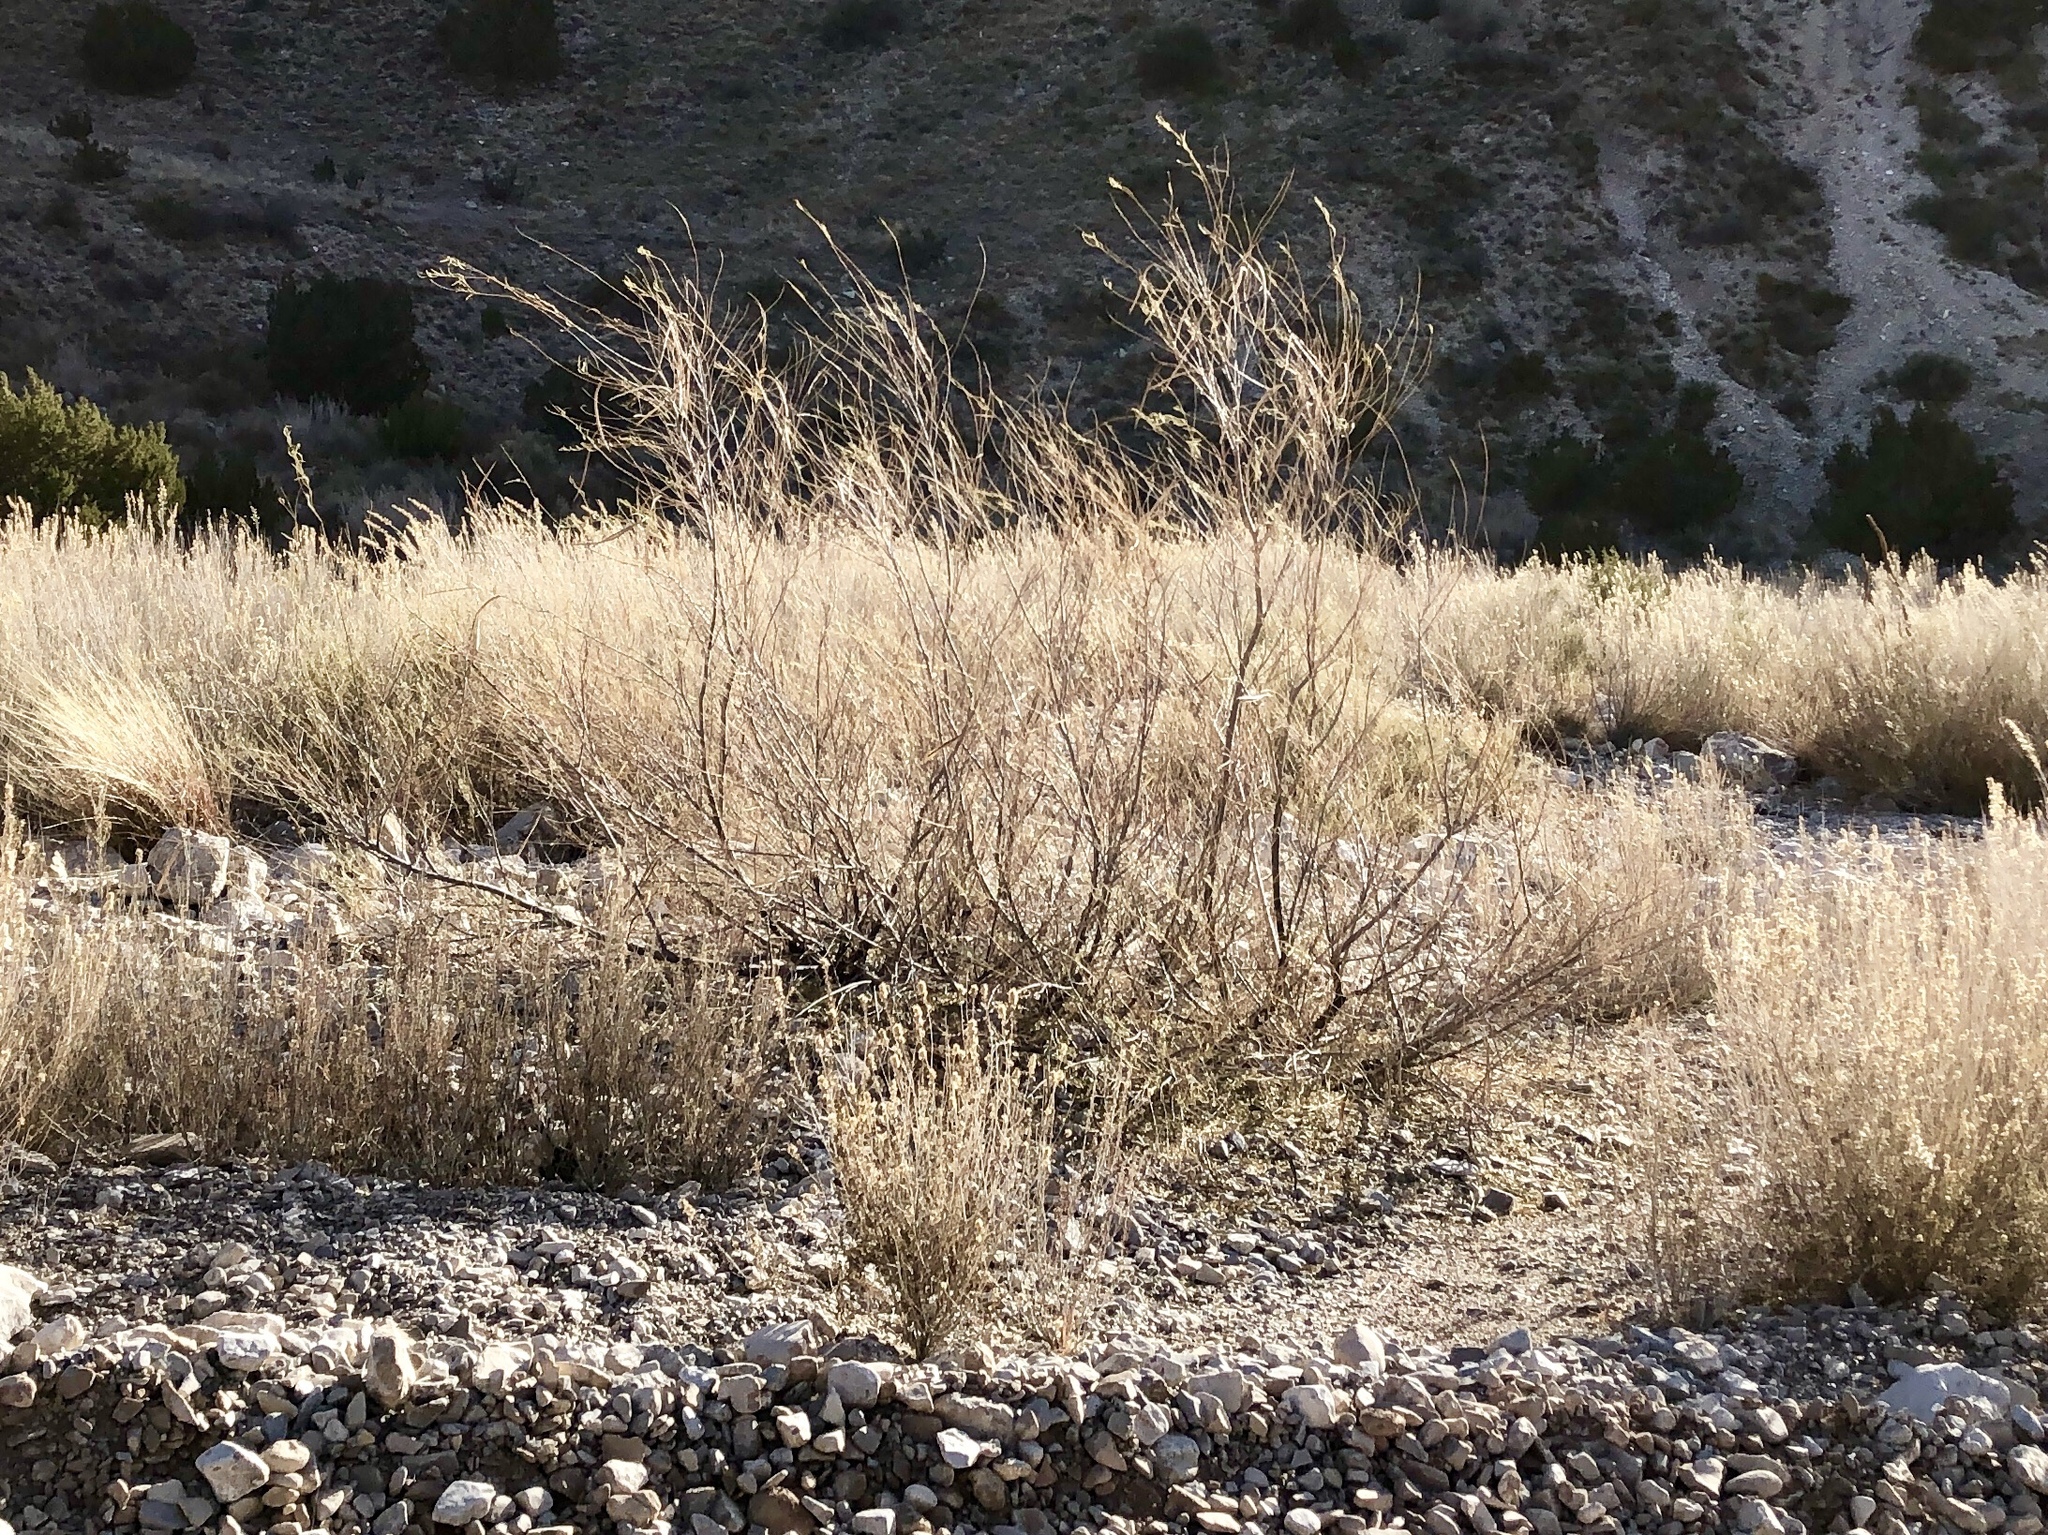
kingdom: Plantae
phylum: Tracheophyta
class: Magnoliopsida
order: Lamiales
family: Bignoniaceae
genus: Chilopsis
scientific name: Chilopsis linearis
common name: Desert-willow
